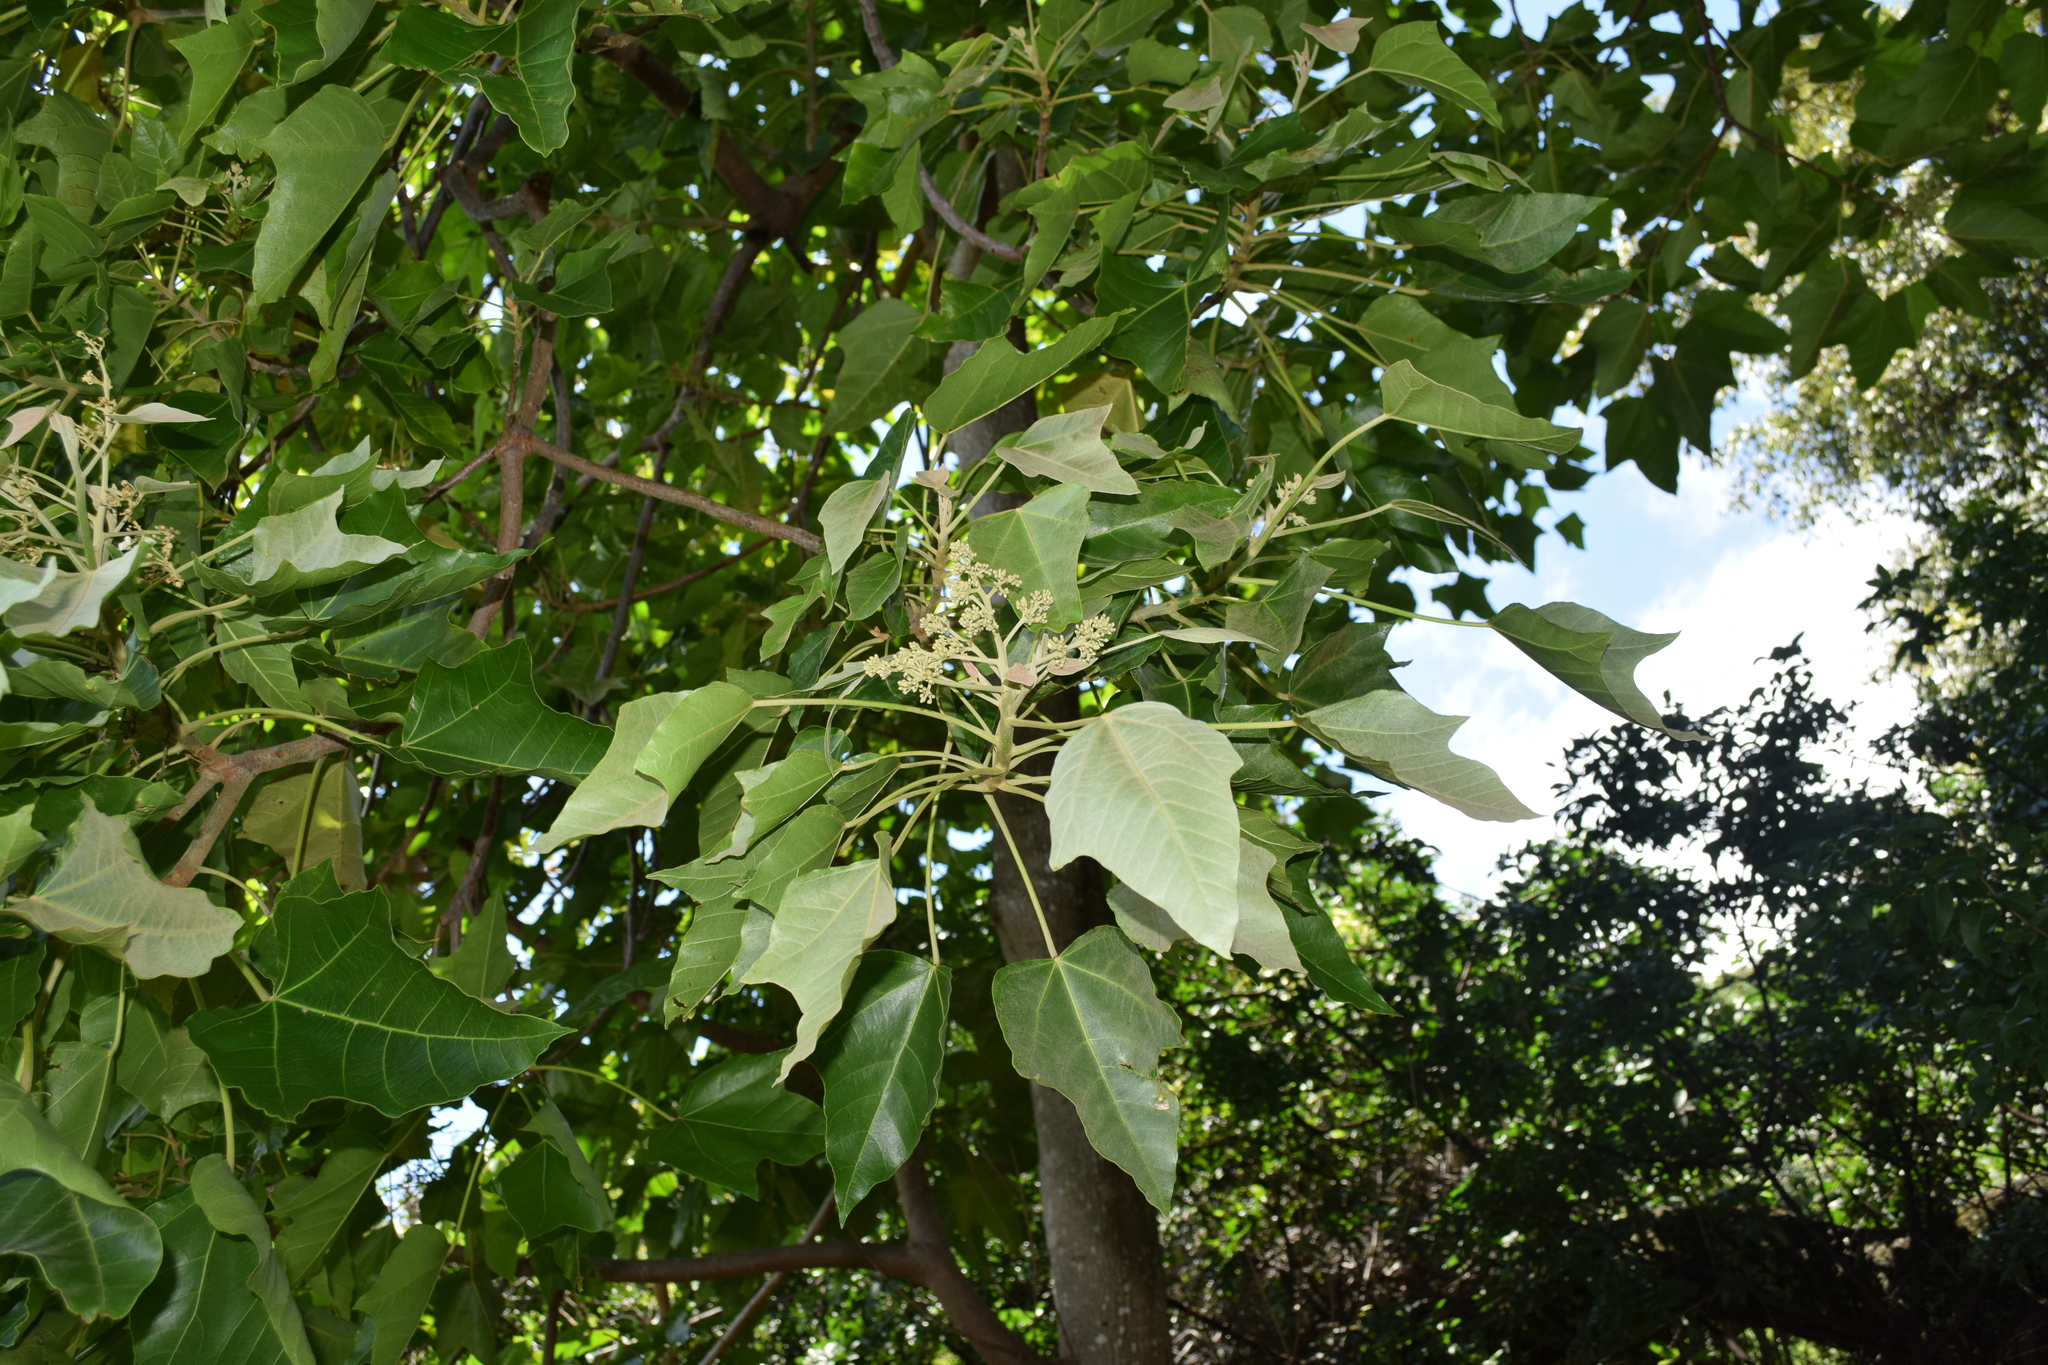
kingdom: Plantae
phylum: Tracheophyta
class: Magnoliopsida
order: Malpighiales
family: Euphorbiaceae
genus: Aleurites
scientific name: Aleurites moluccanus
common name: Candlenut tree
